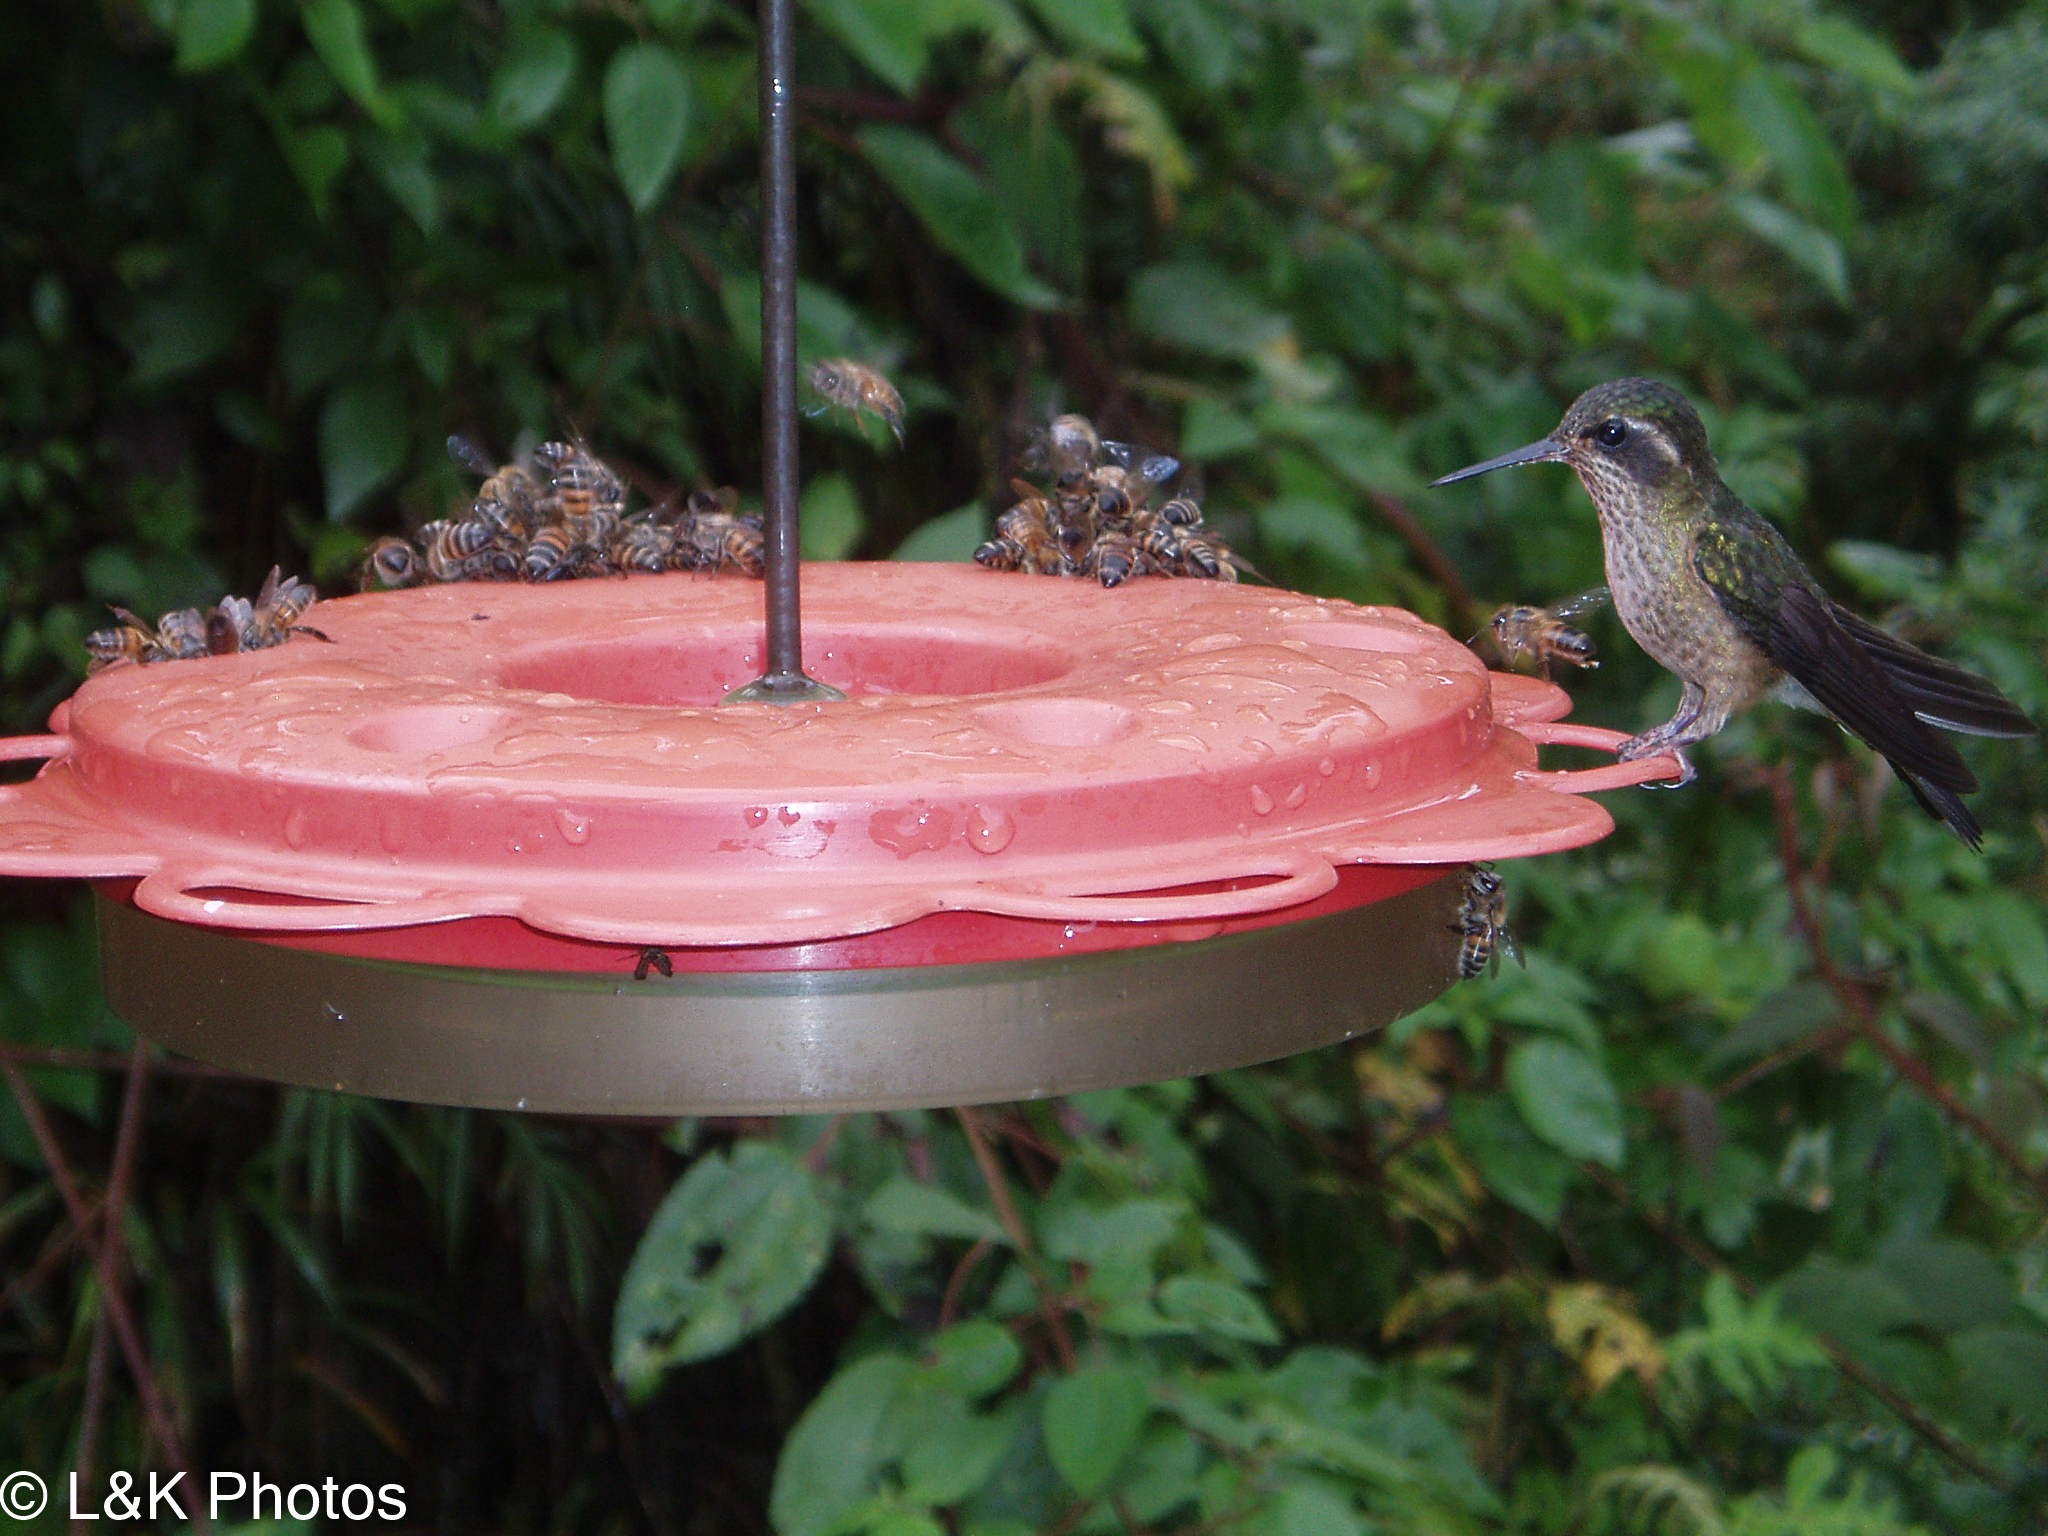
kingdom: Animalia
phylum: Chordata
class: Aves
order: Apodiformes
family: Trochilidae
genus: Adelomyia
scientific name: Adelomyia melanogenys
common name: Speckled hummingbird
